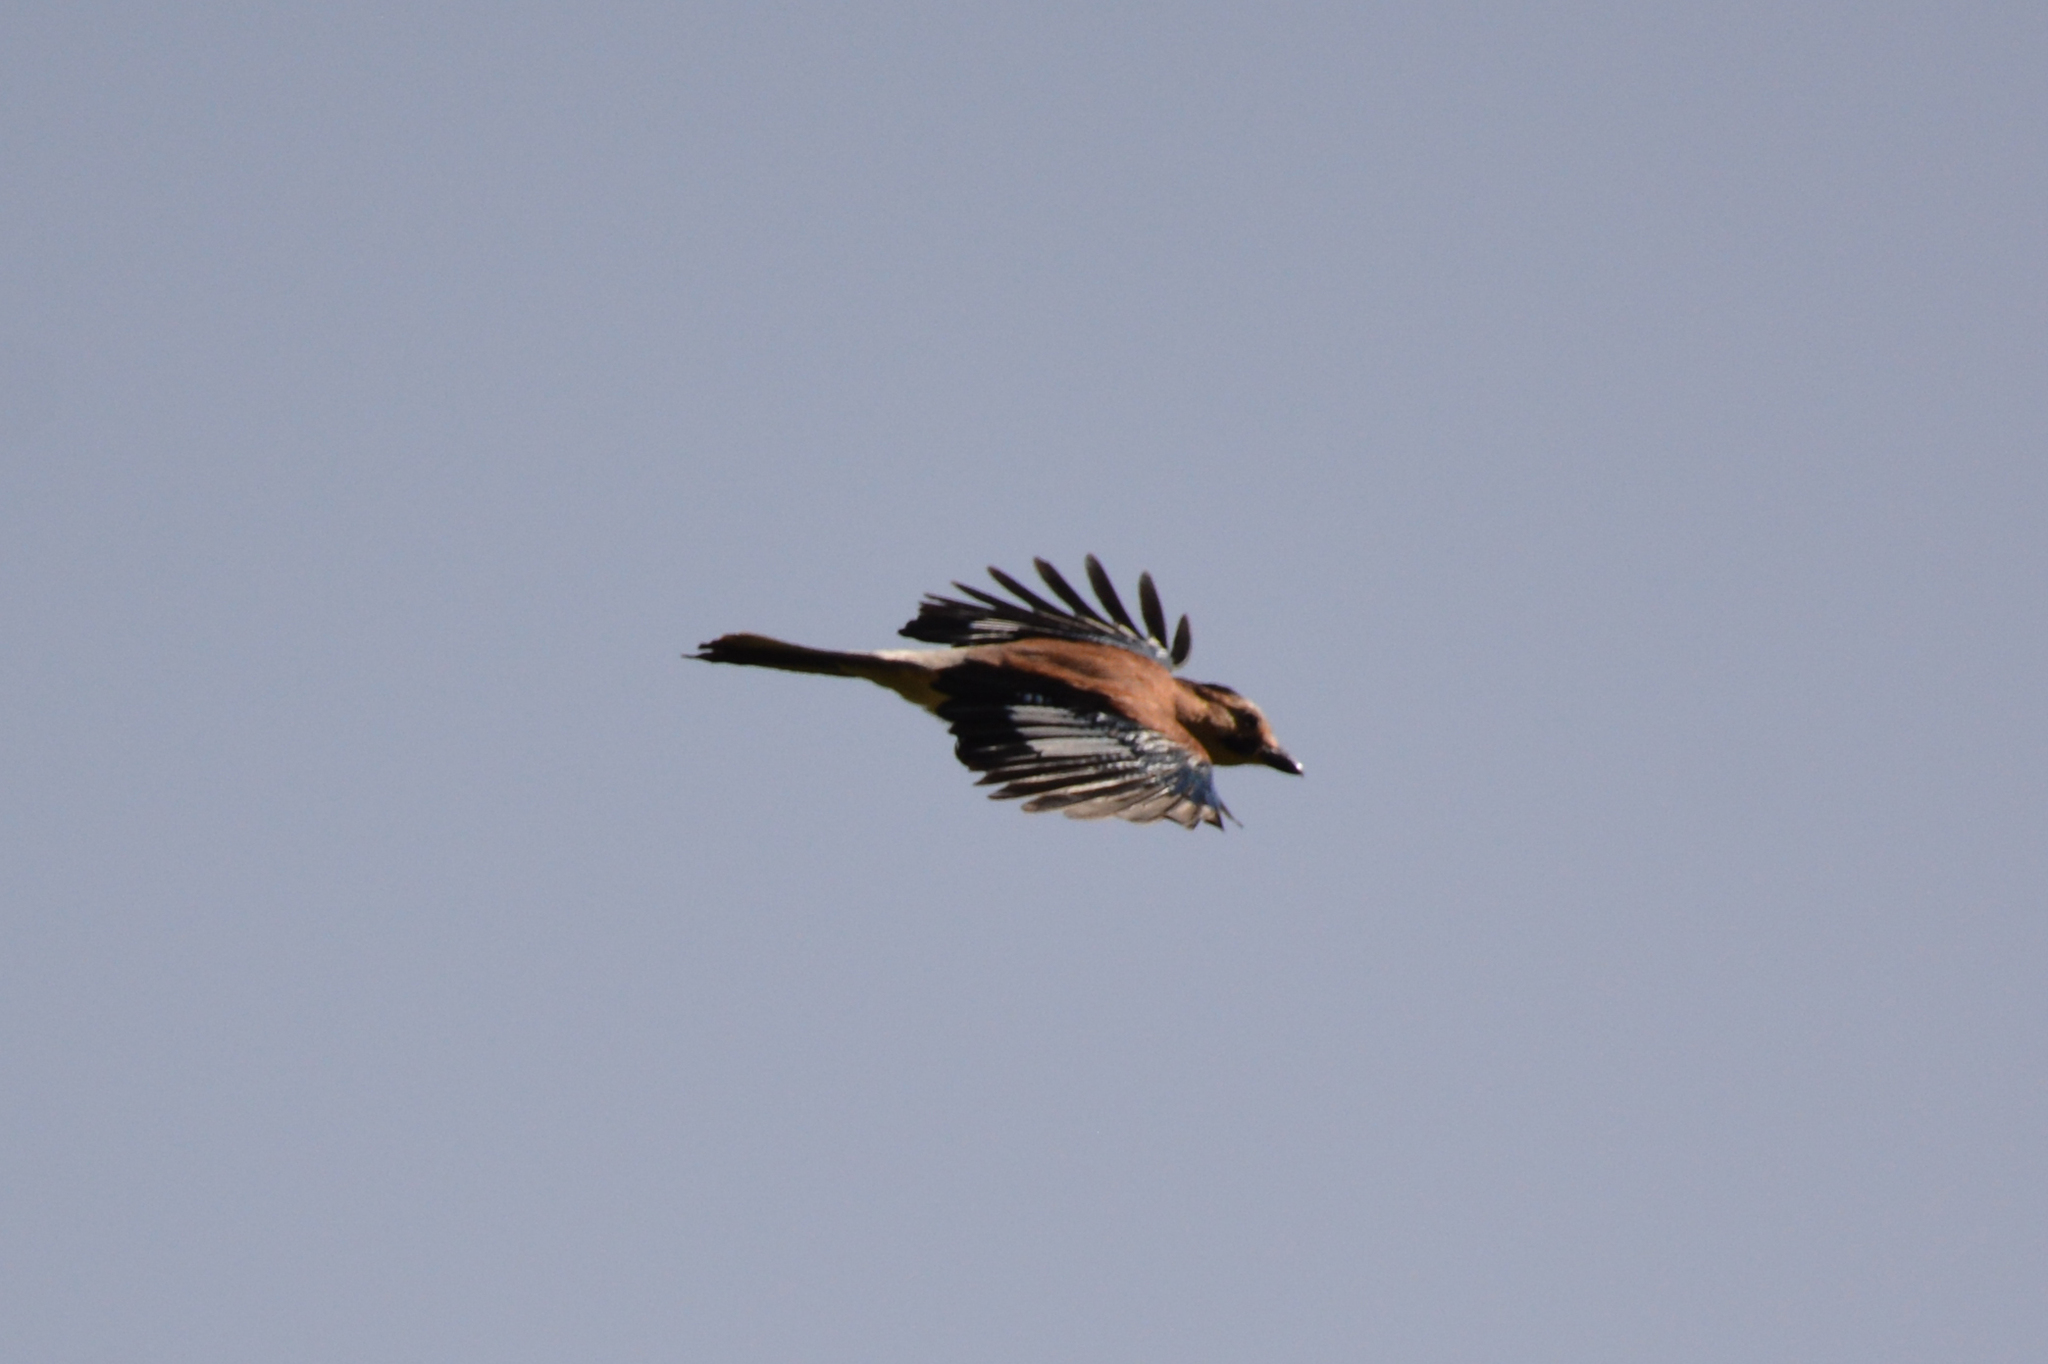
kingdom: Animalia
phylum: Chordata
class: Aves
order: Passeriformes
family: Corvidae
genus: Garrulus
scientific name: Garrulus glandarius
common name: Eurasian jay
